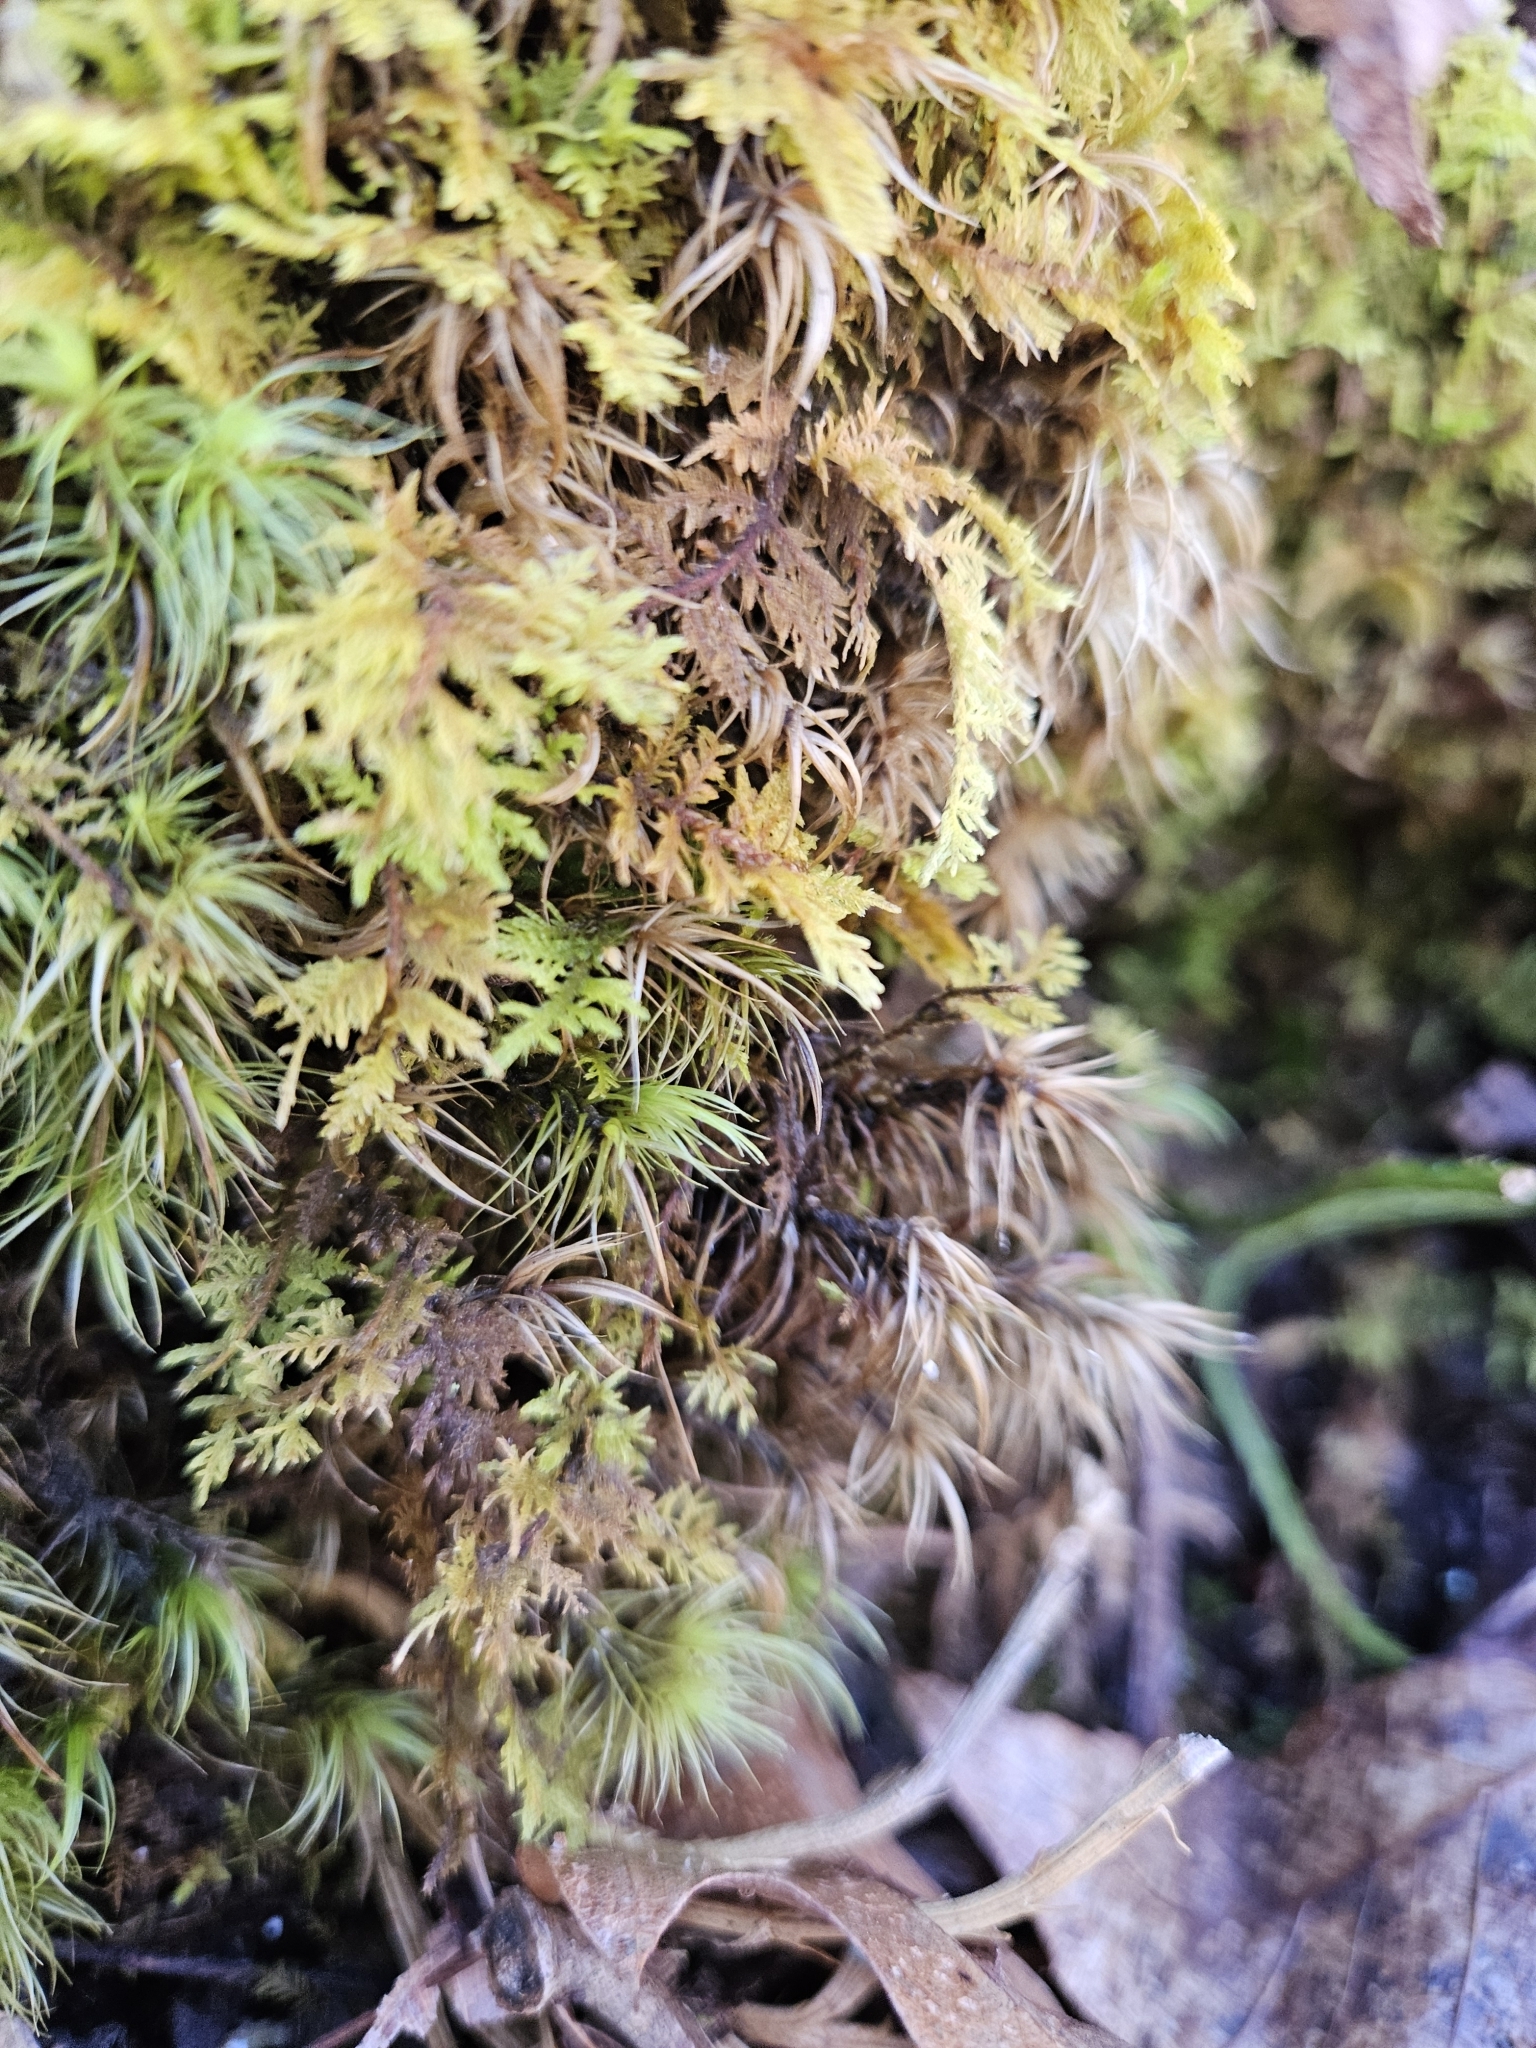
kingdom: Plantae
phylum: Bryophyta
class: Bryopsida
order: Hypnales
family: Thuidiaceae
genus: Thuidium
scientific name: Thuidium delicatulum
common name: Delicate fern moss
